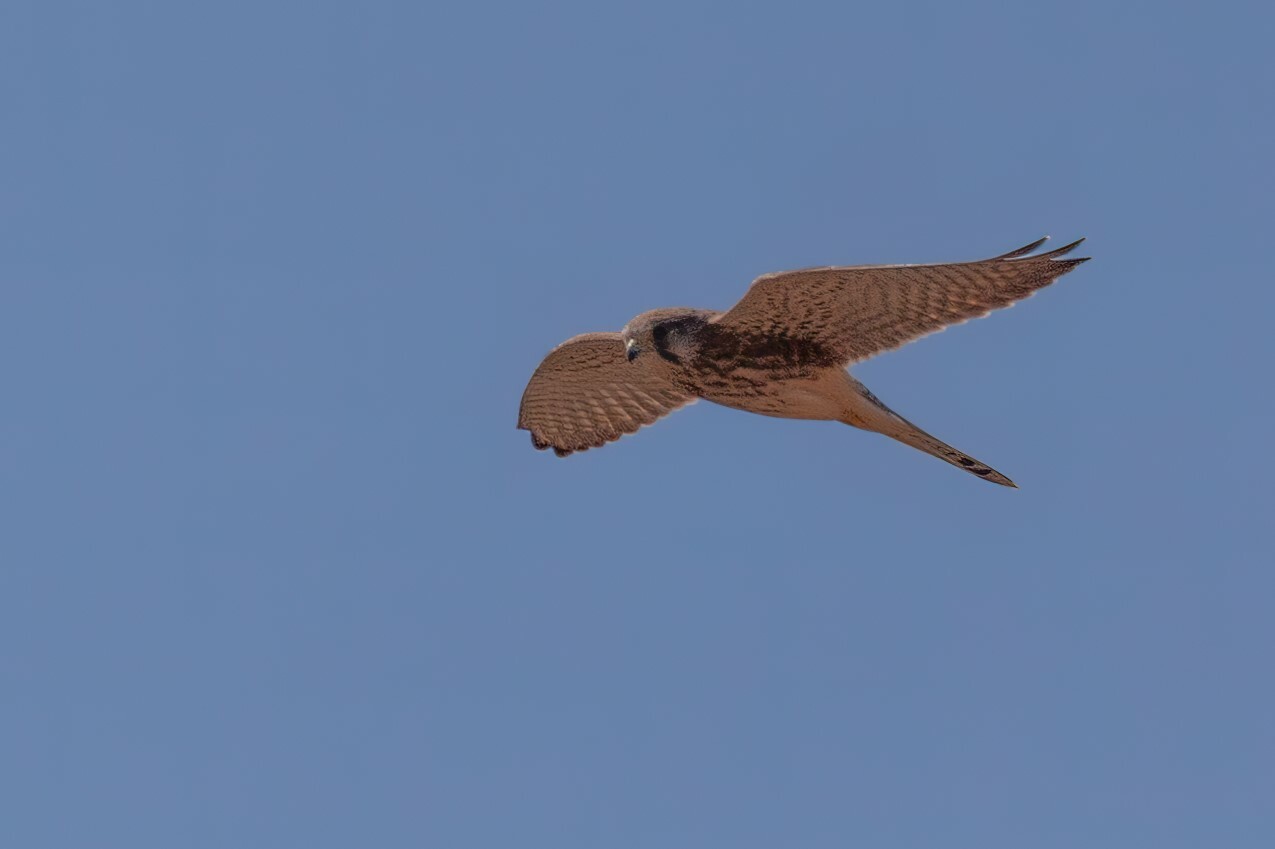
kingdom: Animalia
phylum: Chordata
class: Aves
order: Falconiformes
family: Falconidae
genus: Falco
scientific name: Falco tinnunculus
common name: Common kestrel
